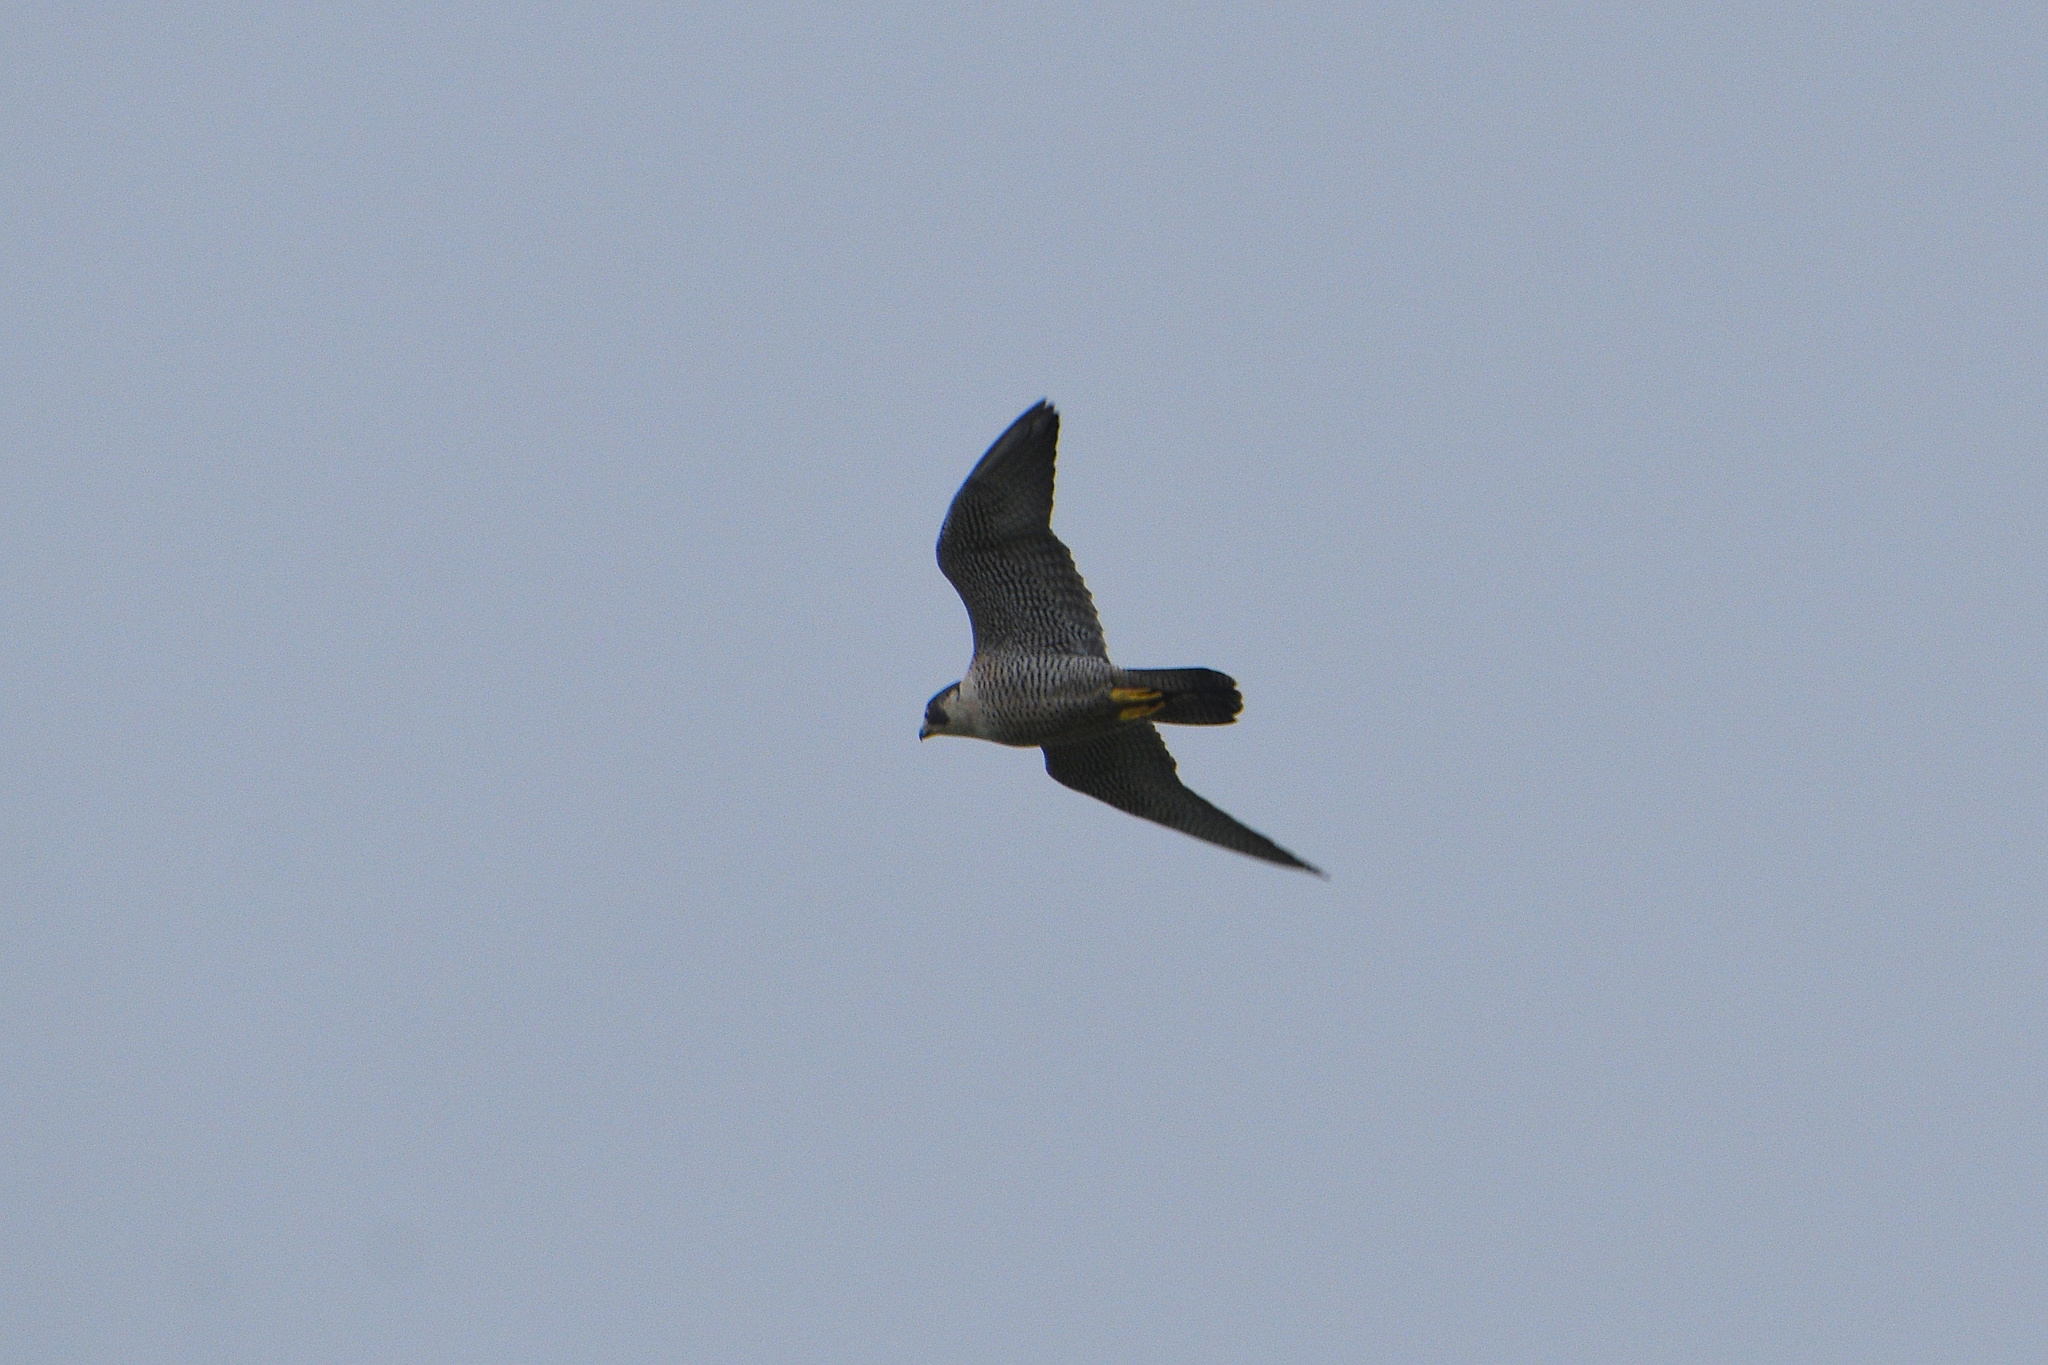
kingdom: Animalia
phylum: Chordata
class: Aves
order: Falconiformes
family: Falconidae
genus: Falco
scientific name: Falco peregrinus
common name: Peregrine falcon
